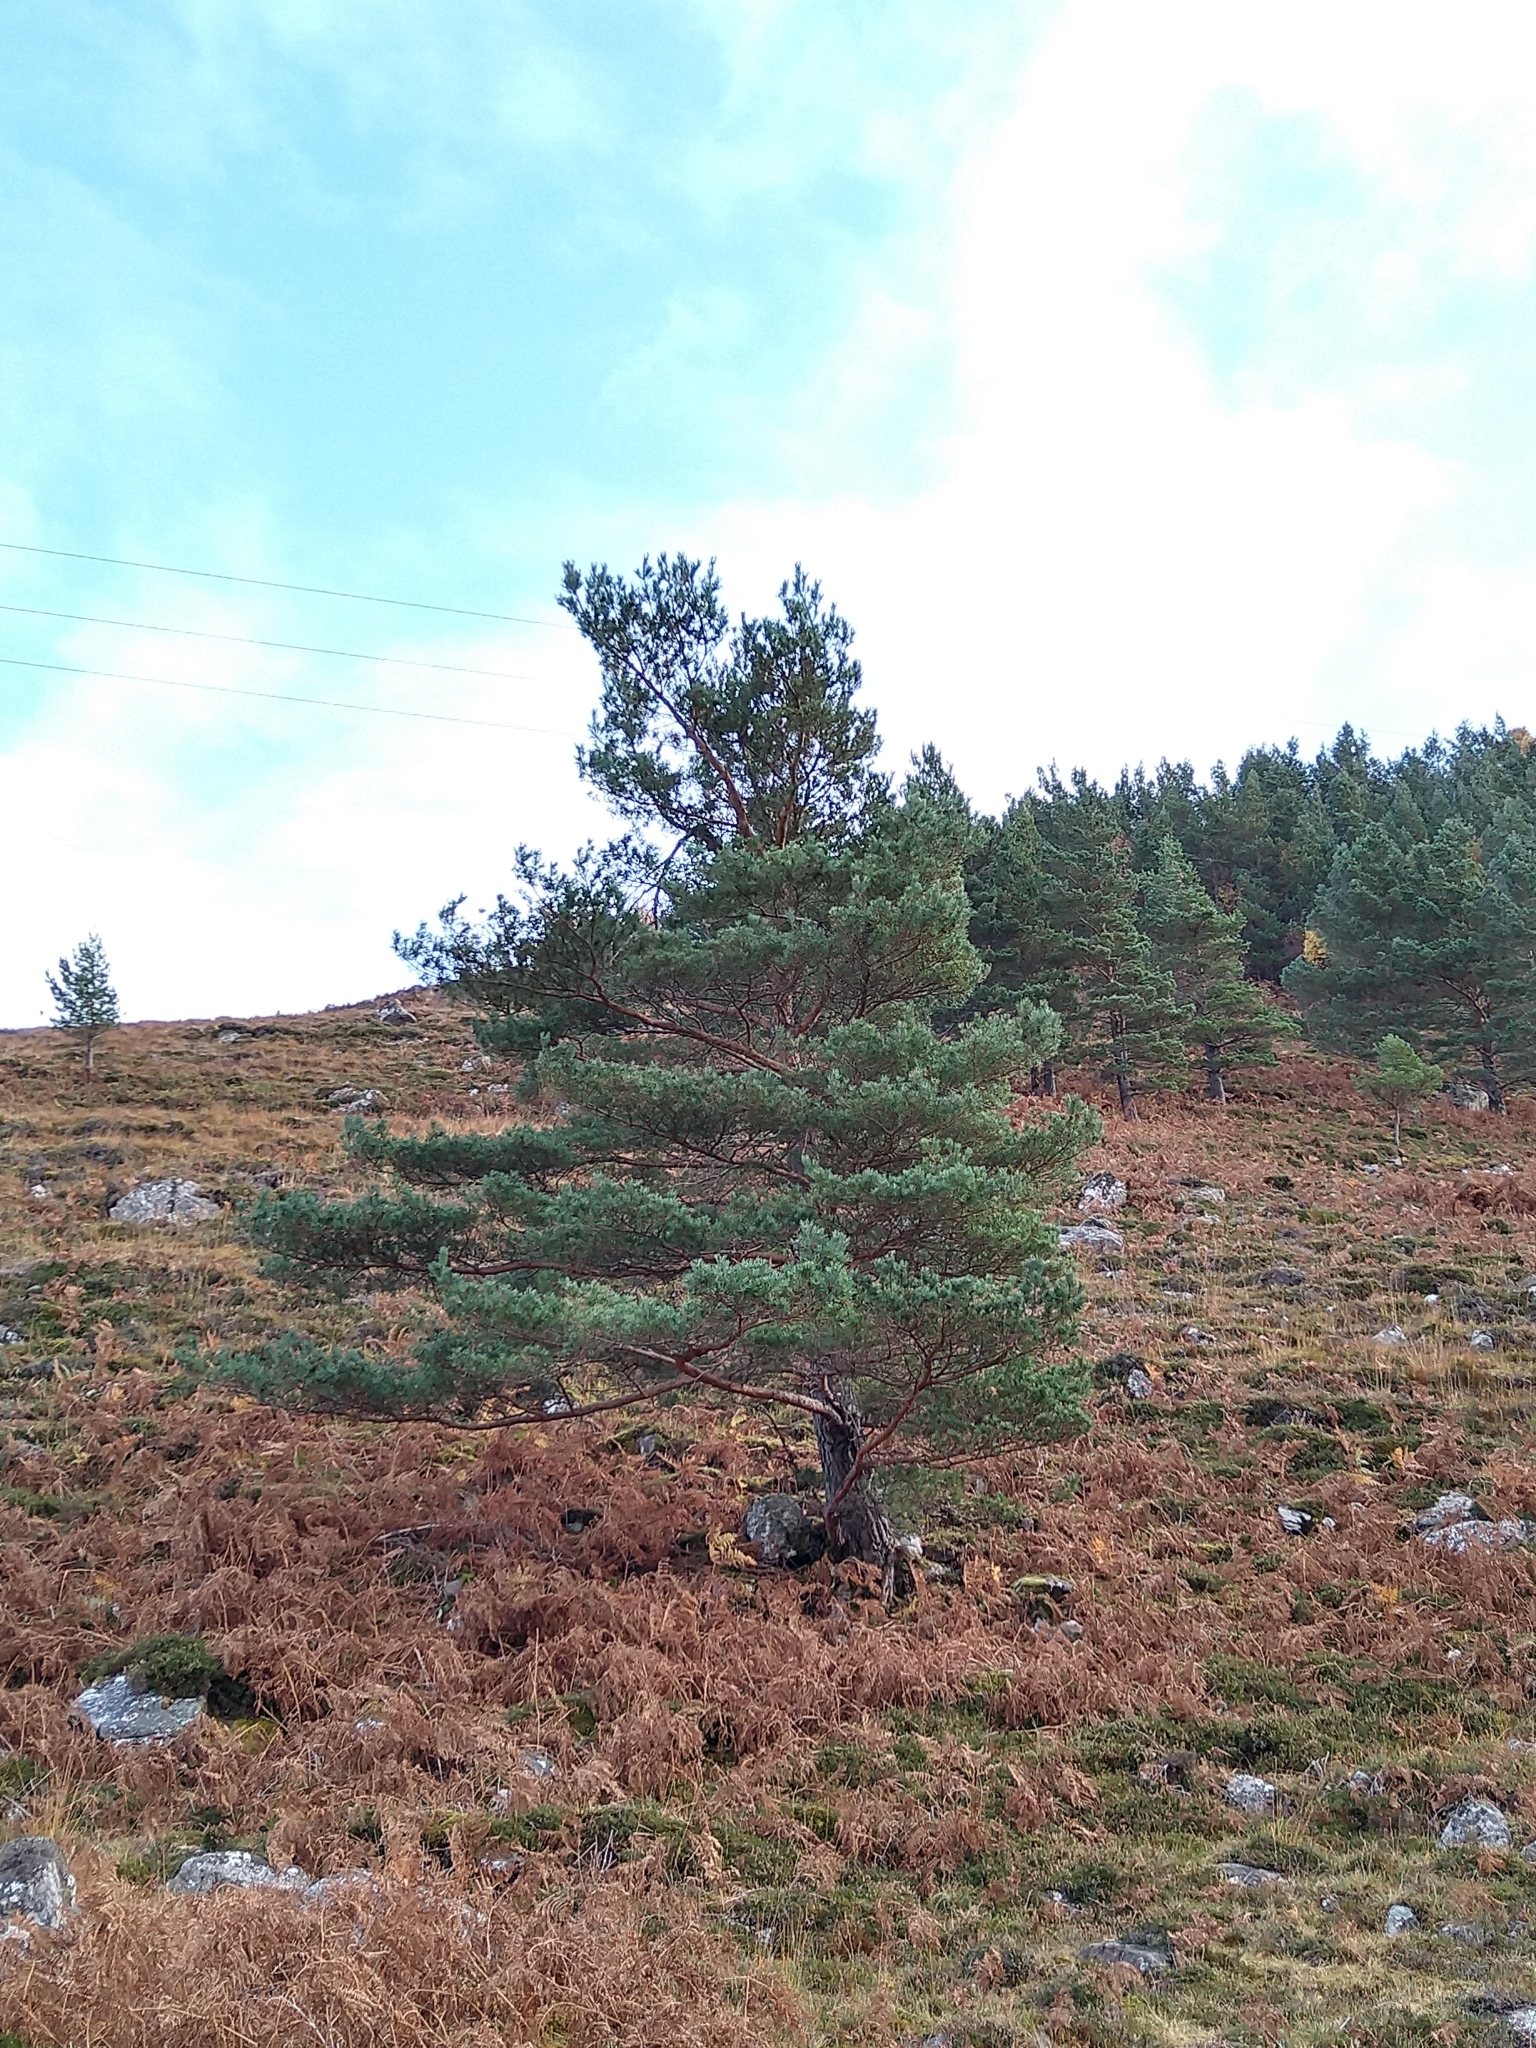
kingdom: Plantae
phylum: Tracheophyta
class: Pinopsida
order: Pinales
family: Pinaceae
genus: Pinus
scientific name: Pinus sylvestris
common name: Scots pine
